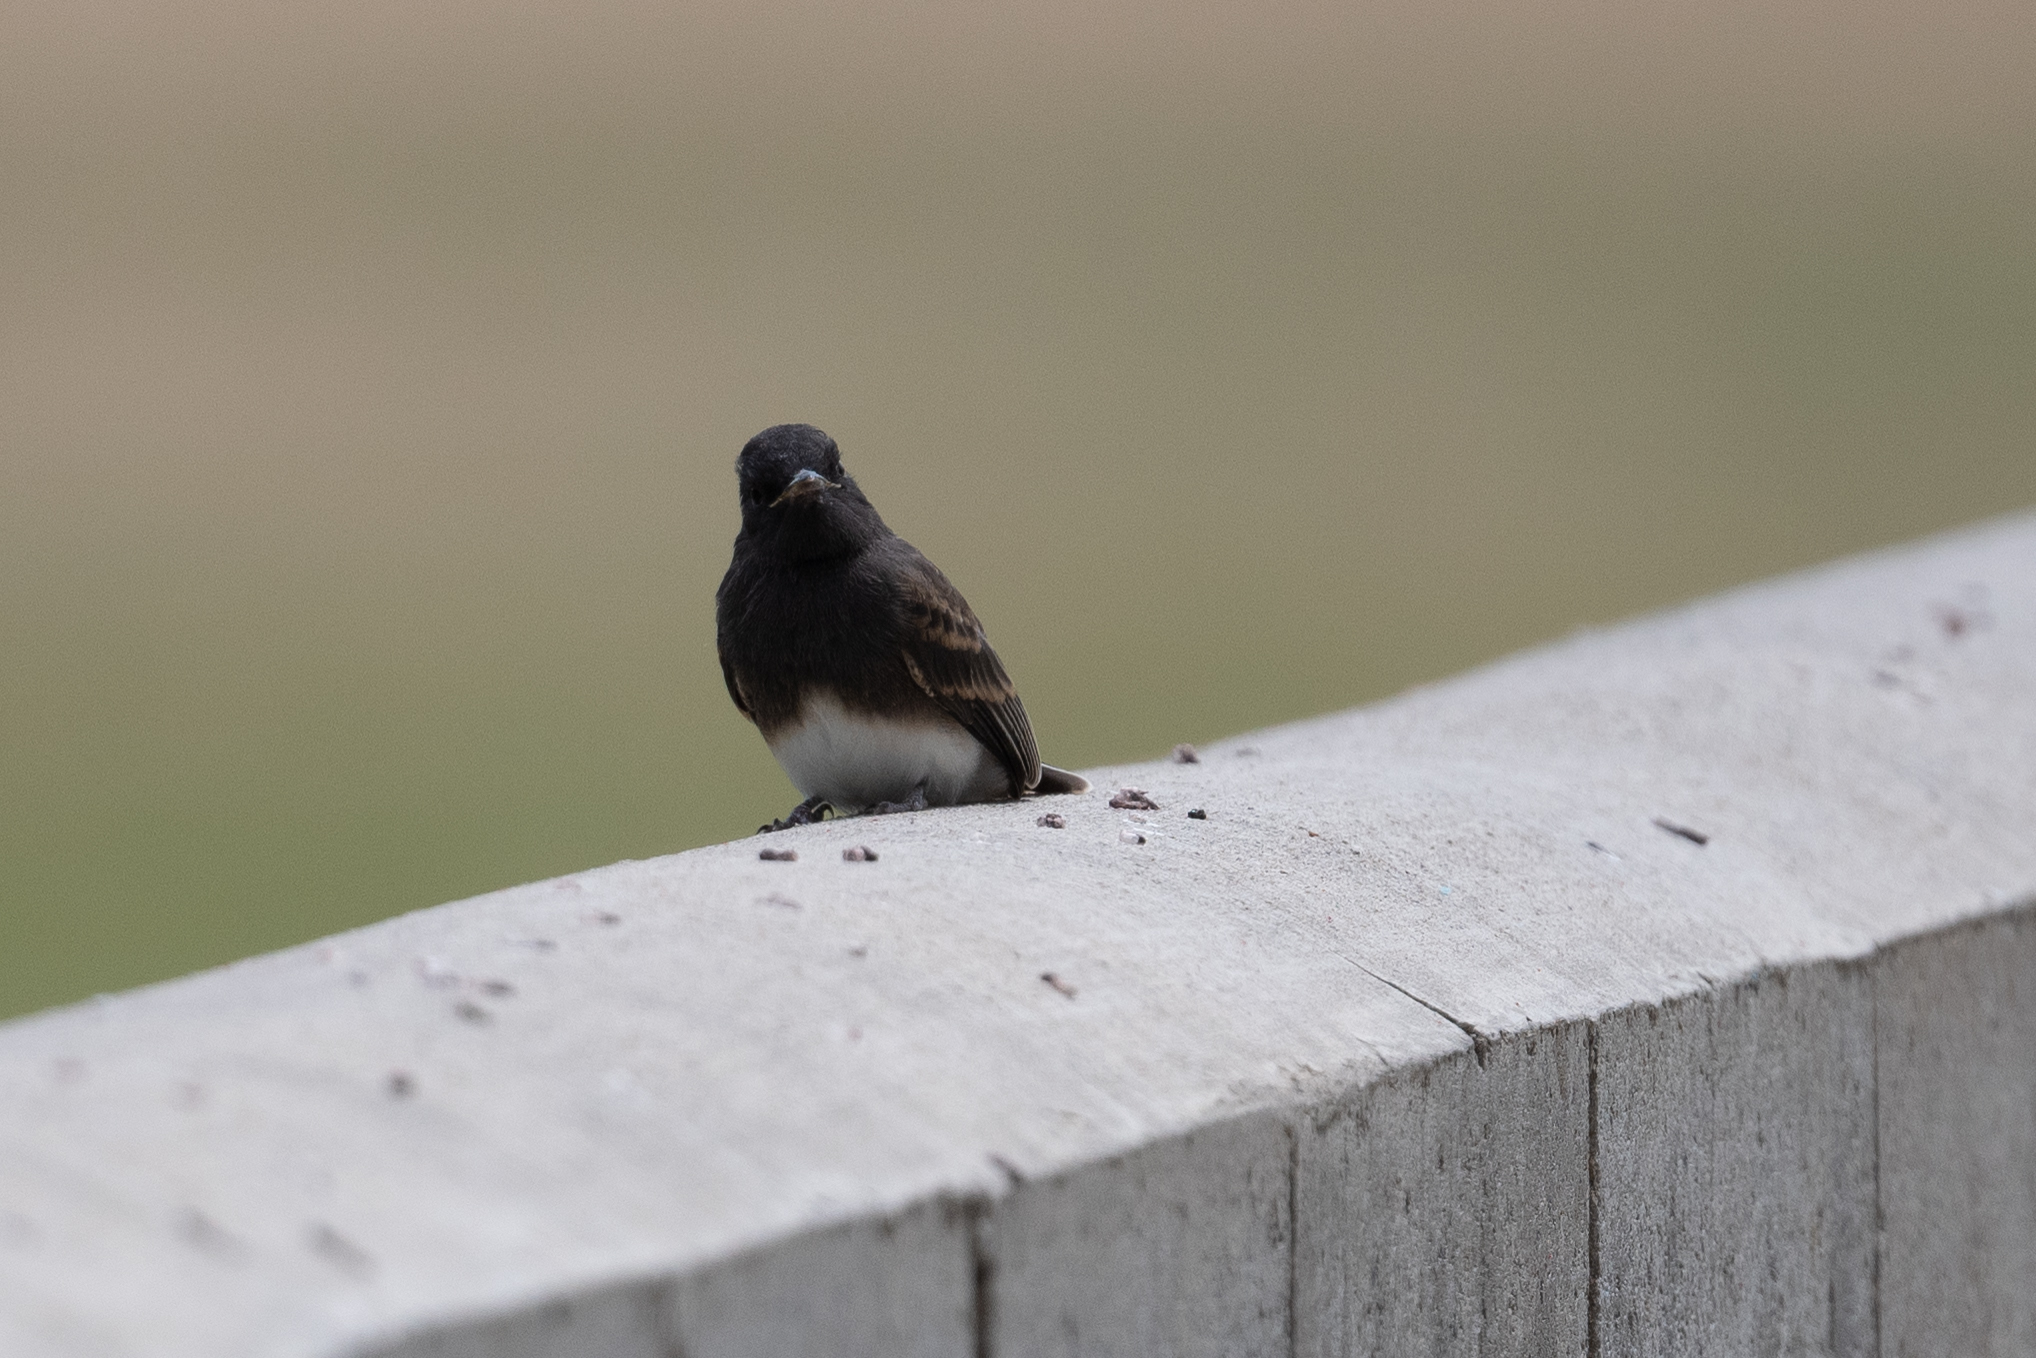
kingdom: Animalia
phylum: Chordata
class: Aves
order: Passeriformes
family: Tyrannidae
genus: Sayornis
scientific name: Sayornis nigricans
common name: Black phoebe
